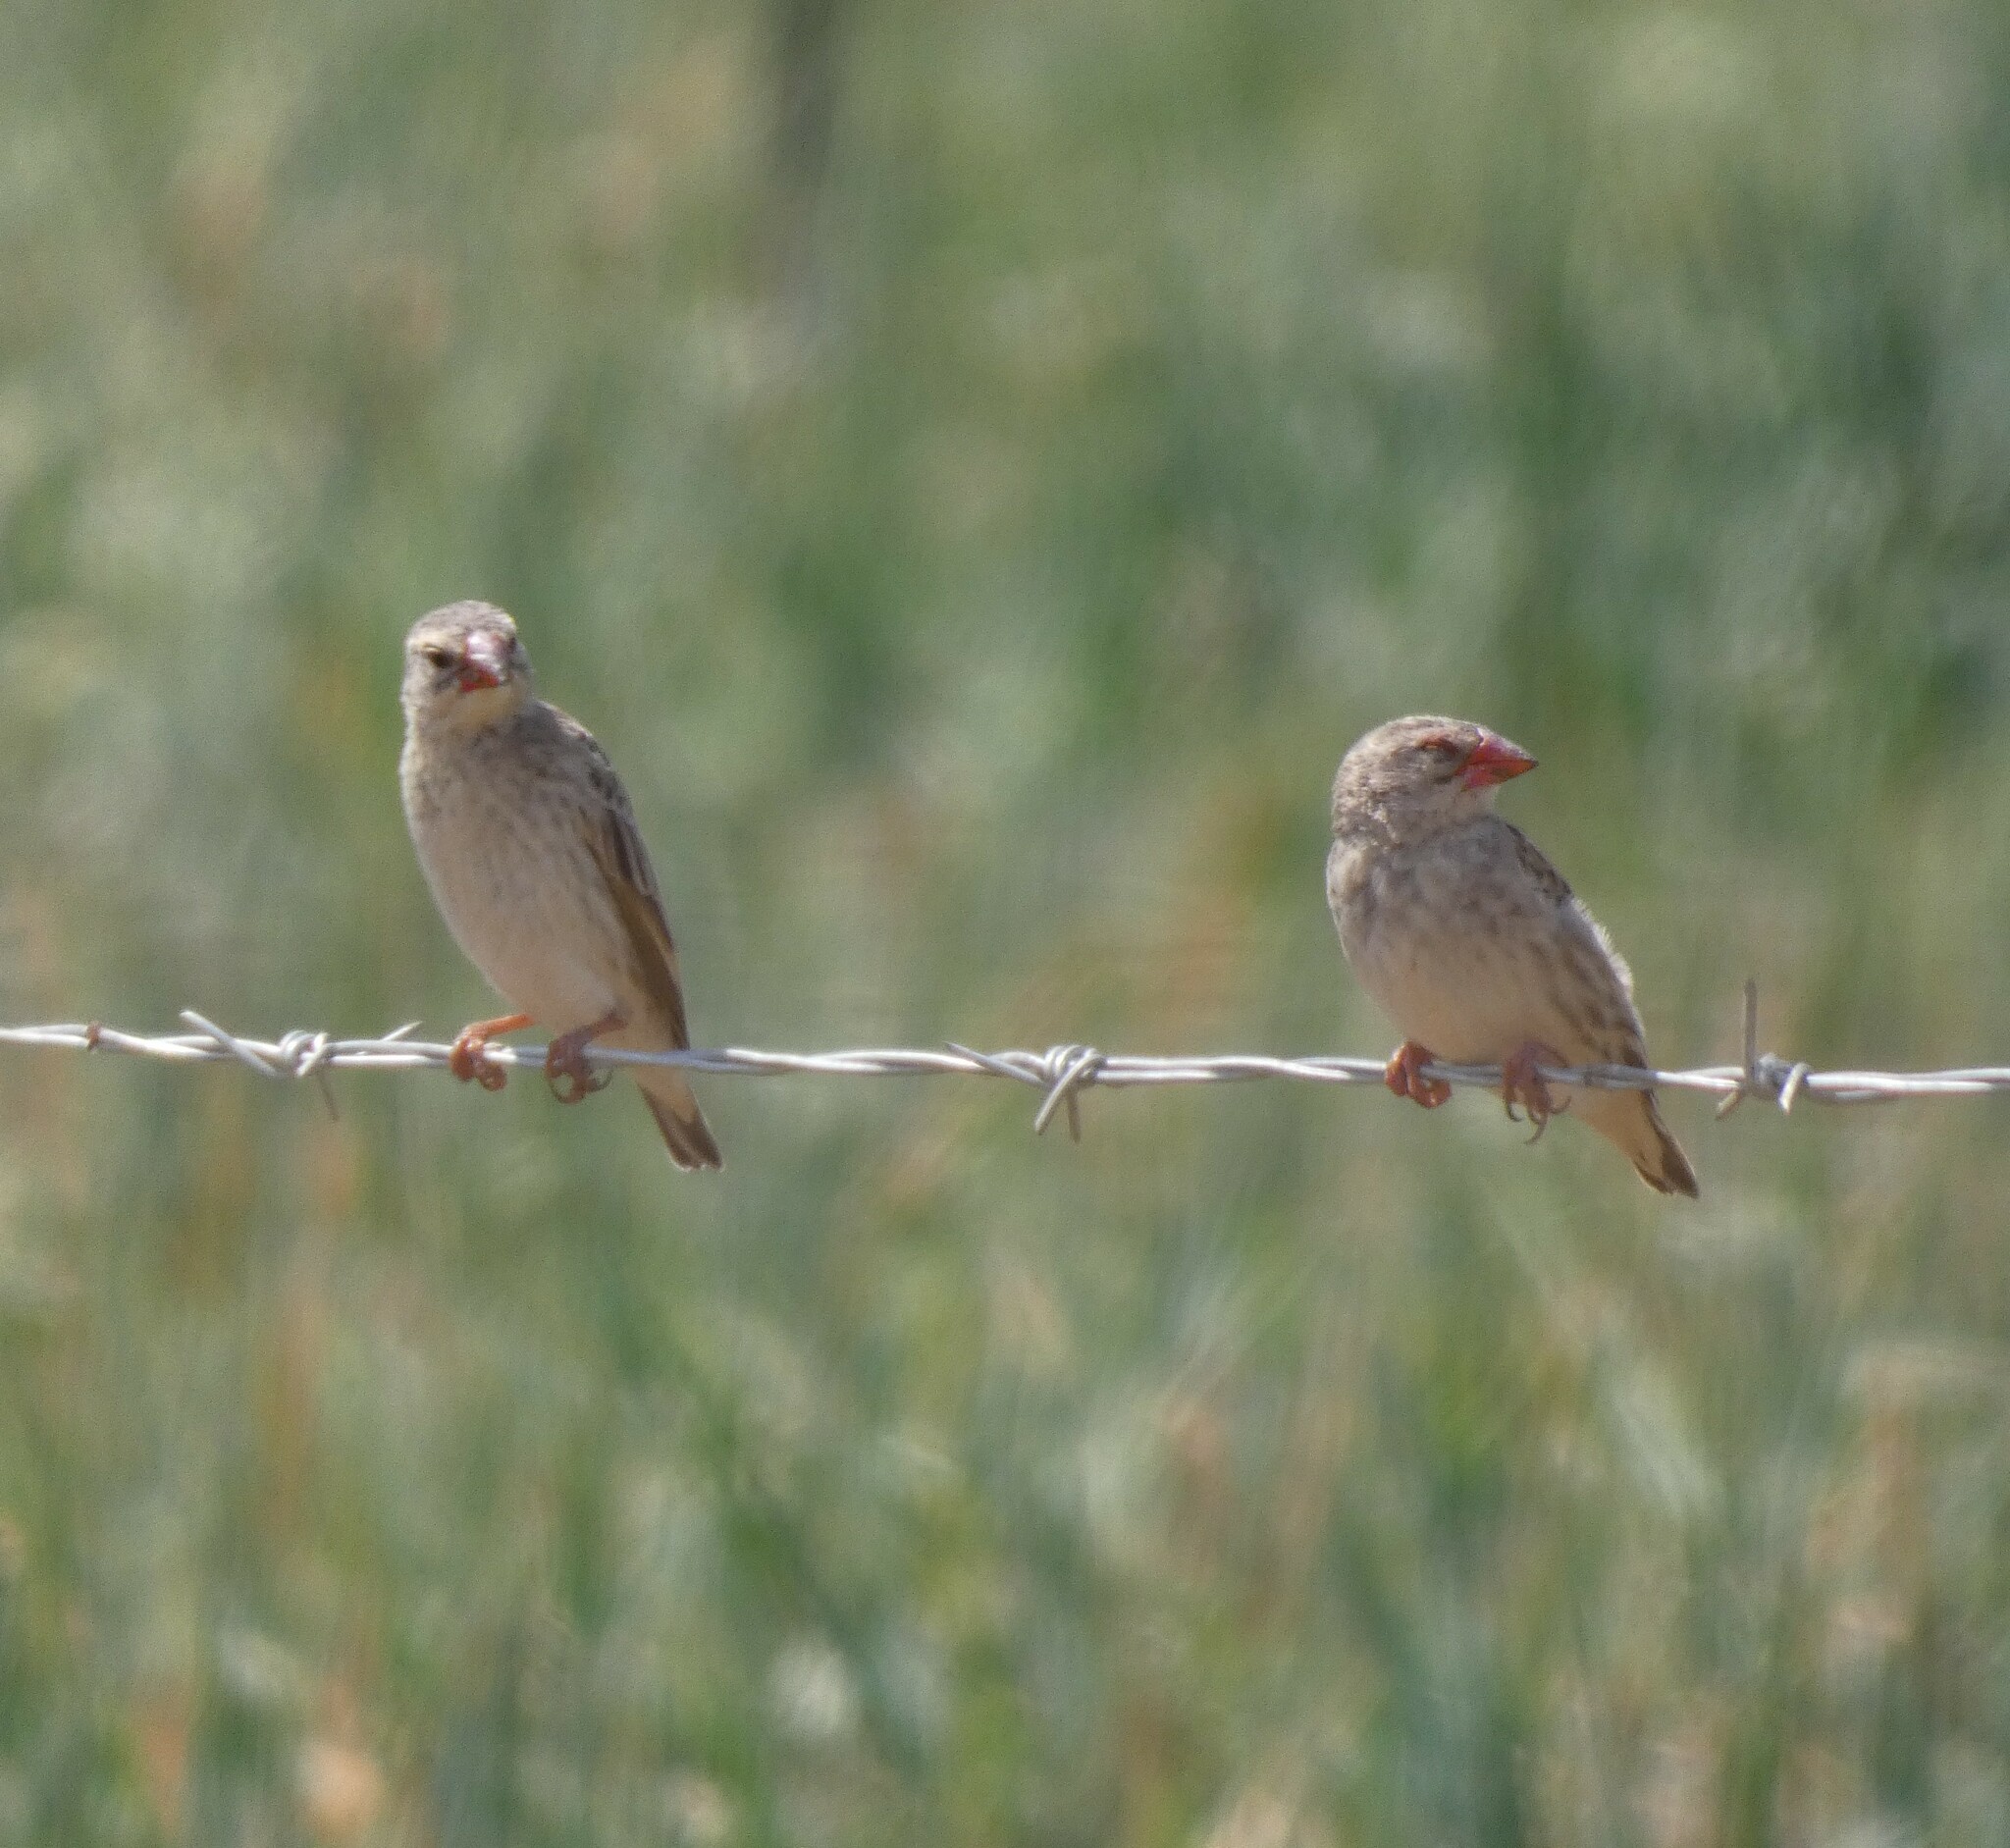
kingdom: Animalia
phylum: Chordata
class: Aves
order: Passeriformes
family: Ploceidae
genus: Quelea
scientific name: Quelea quelea
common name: Red-billed quelea
